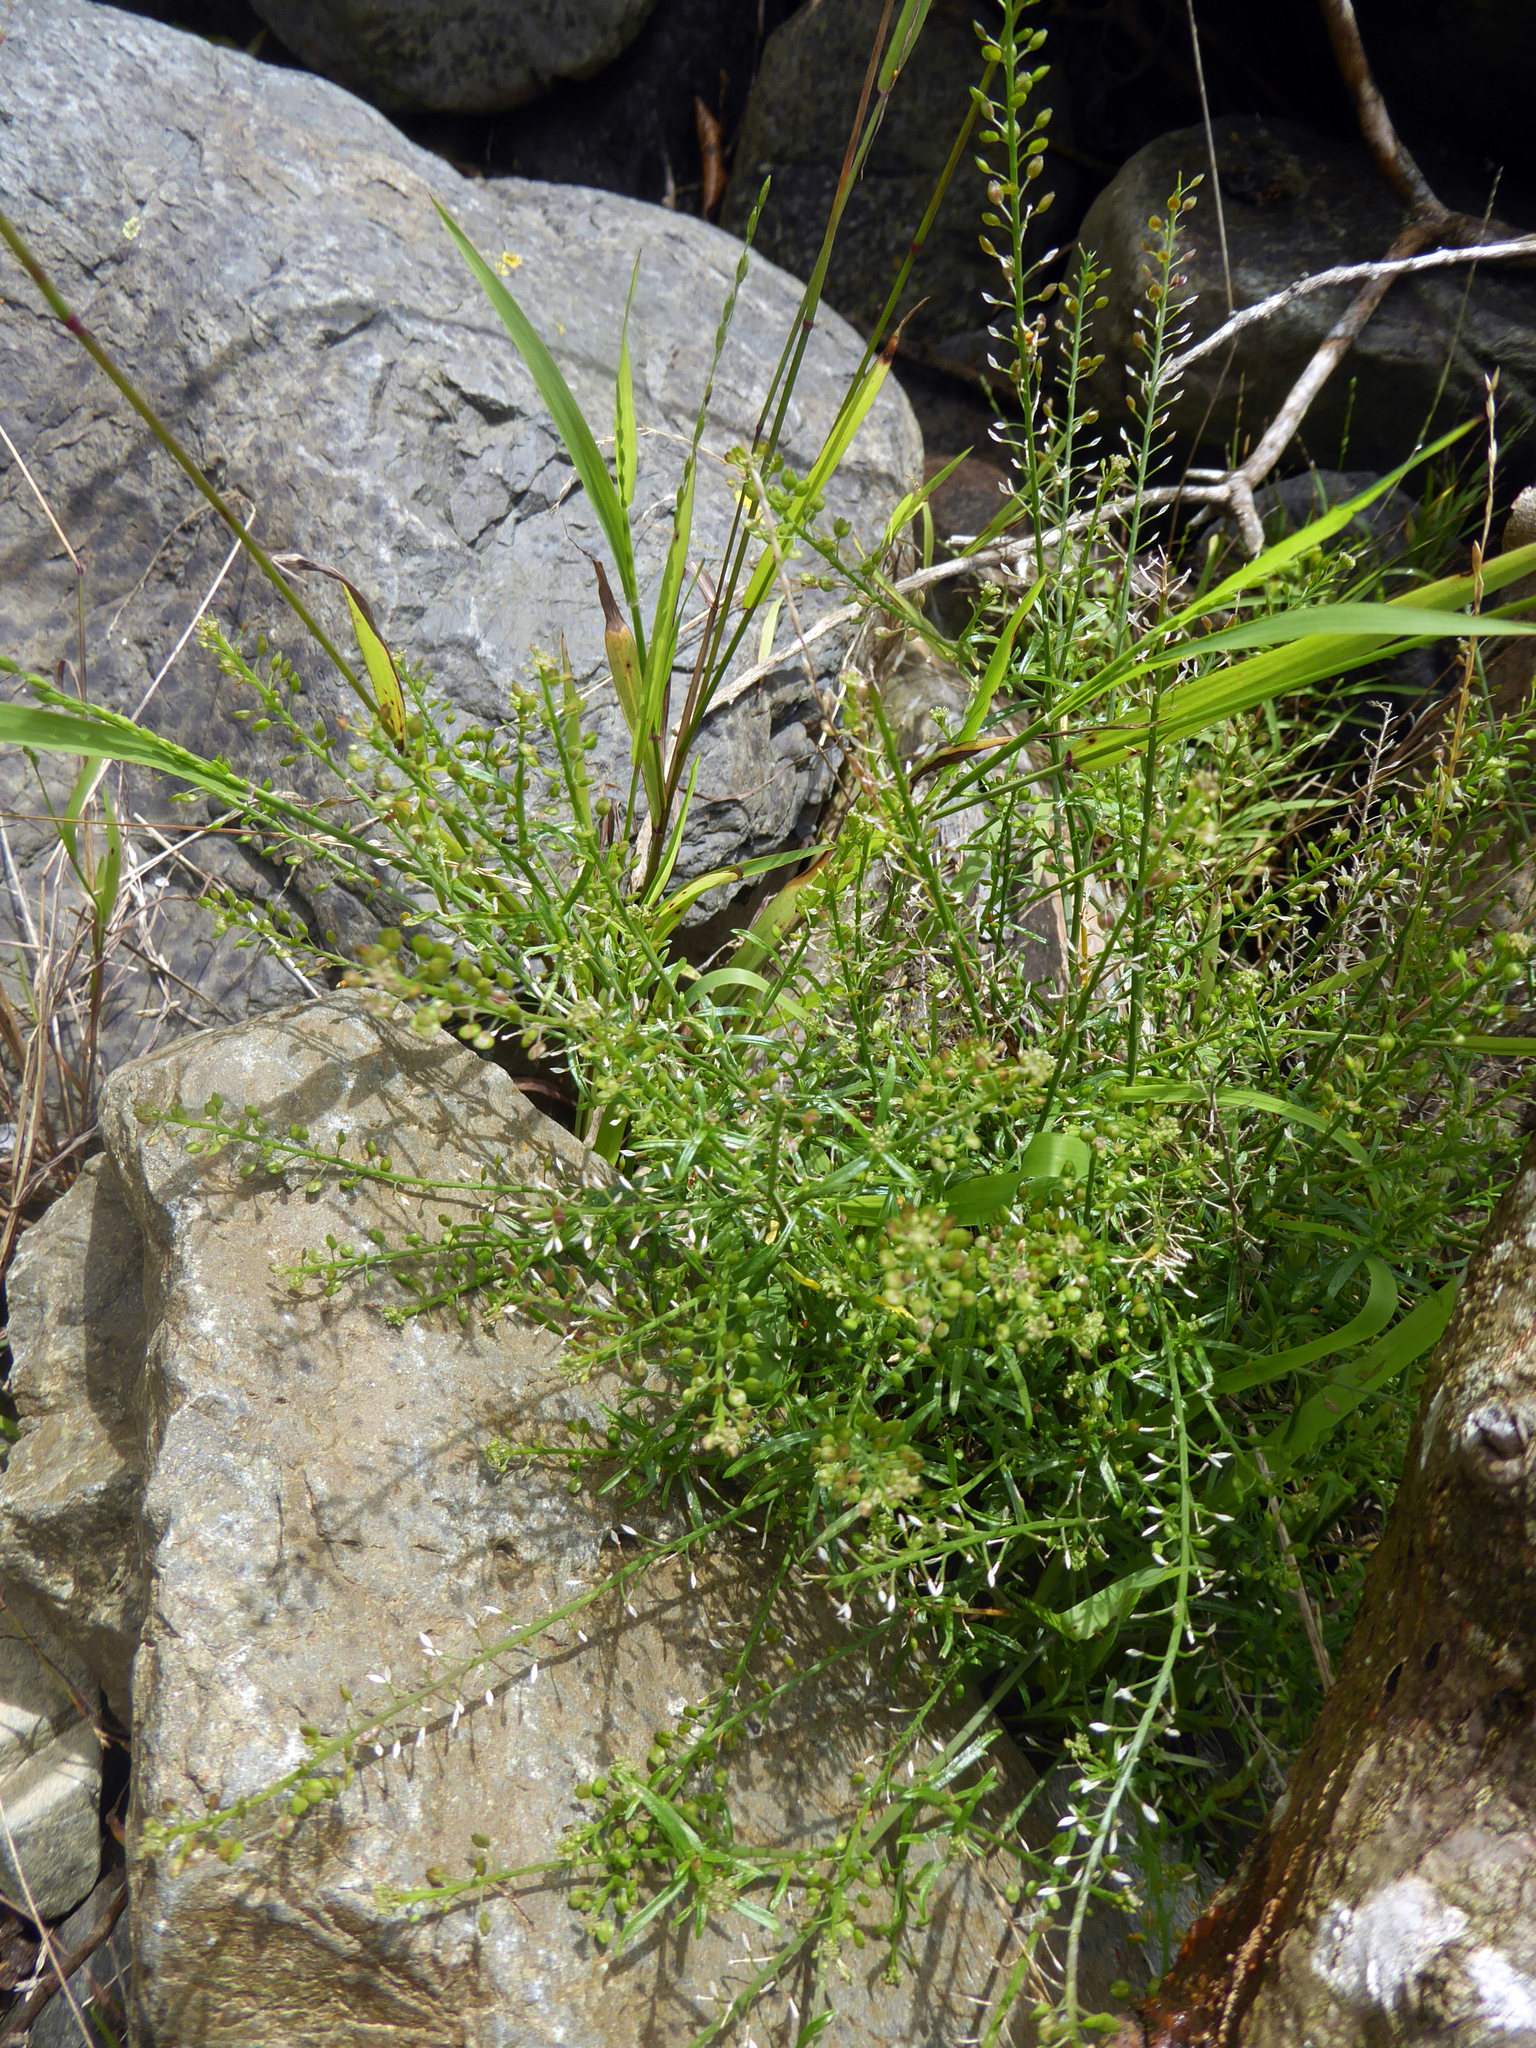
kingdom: Plantae
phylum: Tracheophyta
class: Magnoliopsida
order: Brassicales
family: Brassicaceae
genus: Lepidium
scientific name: Lepidium pseudotasmanicum
